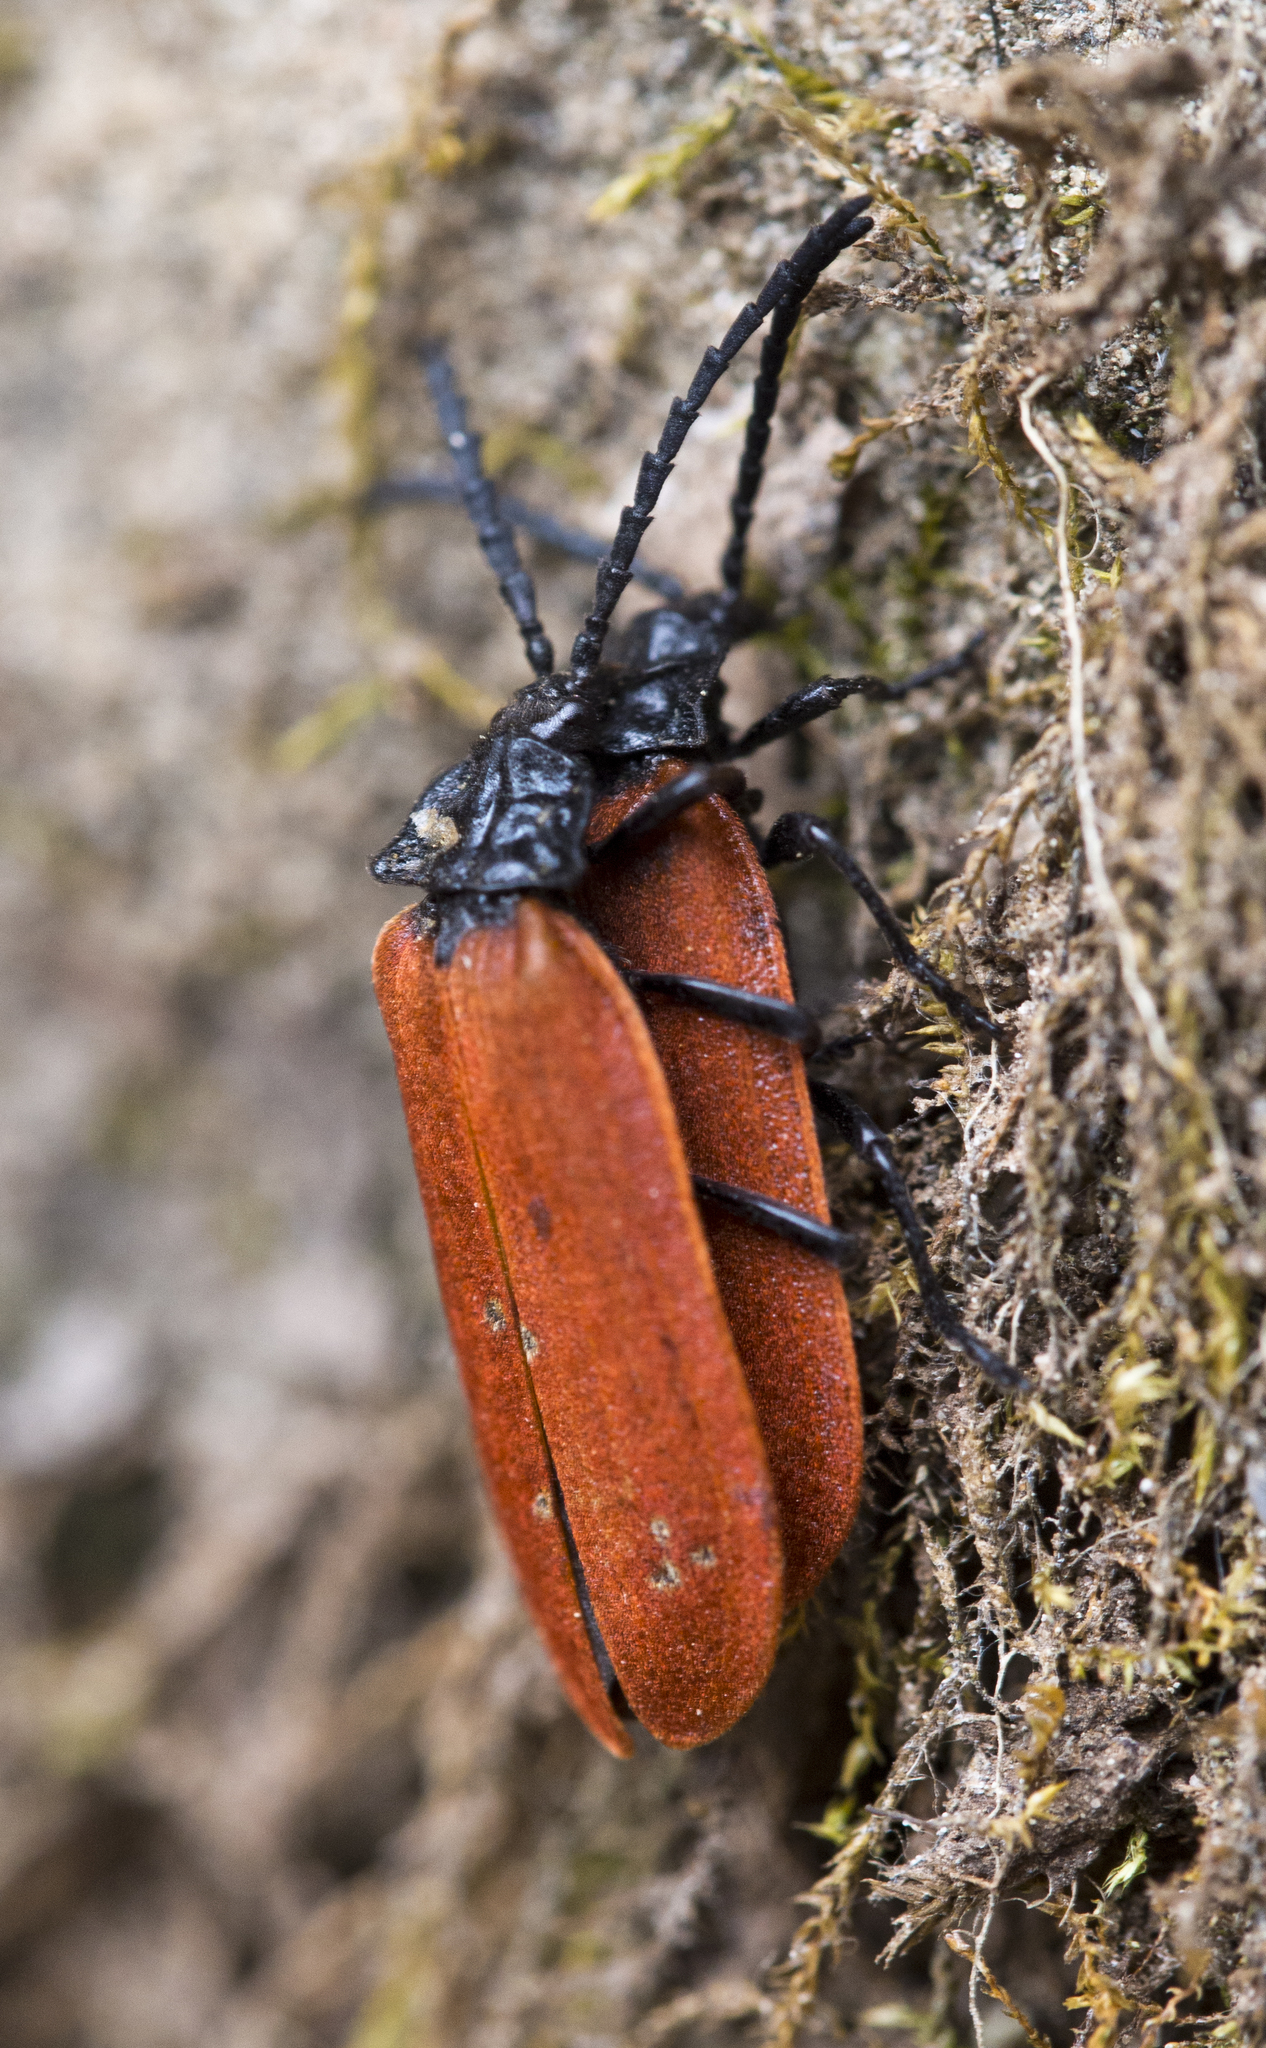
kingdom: Animalia
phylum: Arthropoda
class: Insecta
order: Coleoptera
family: Lycidae
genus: Macrolygistopterus
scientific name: Macrolygistopterus
